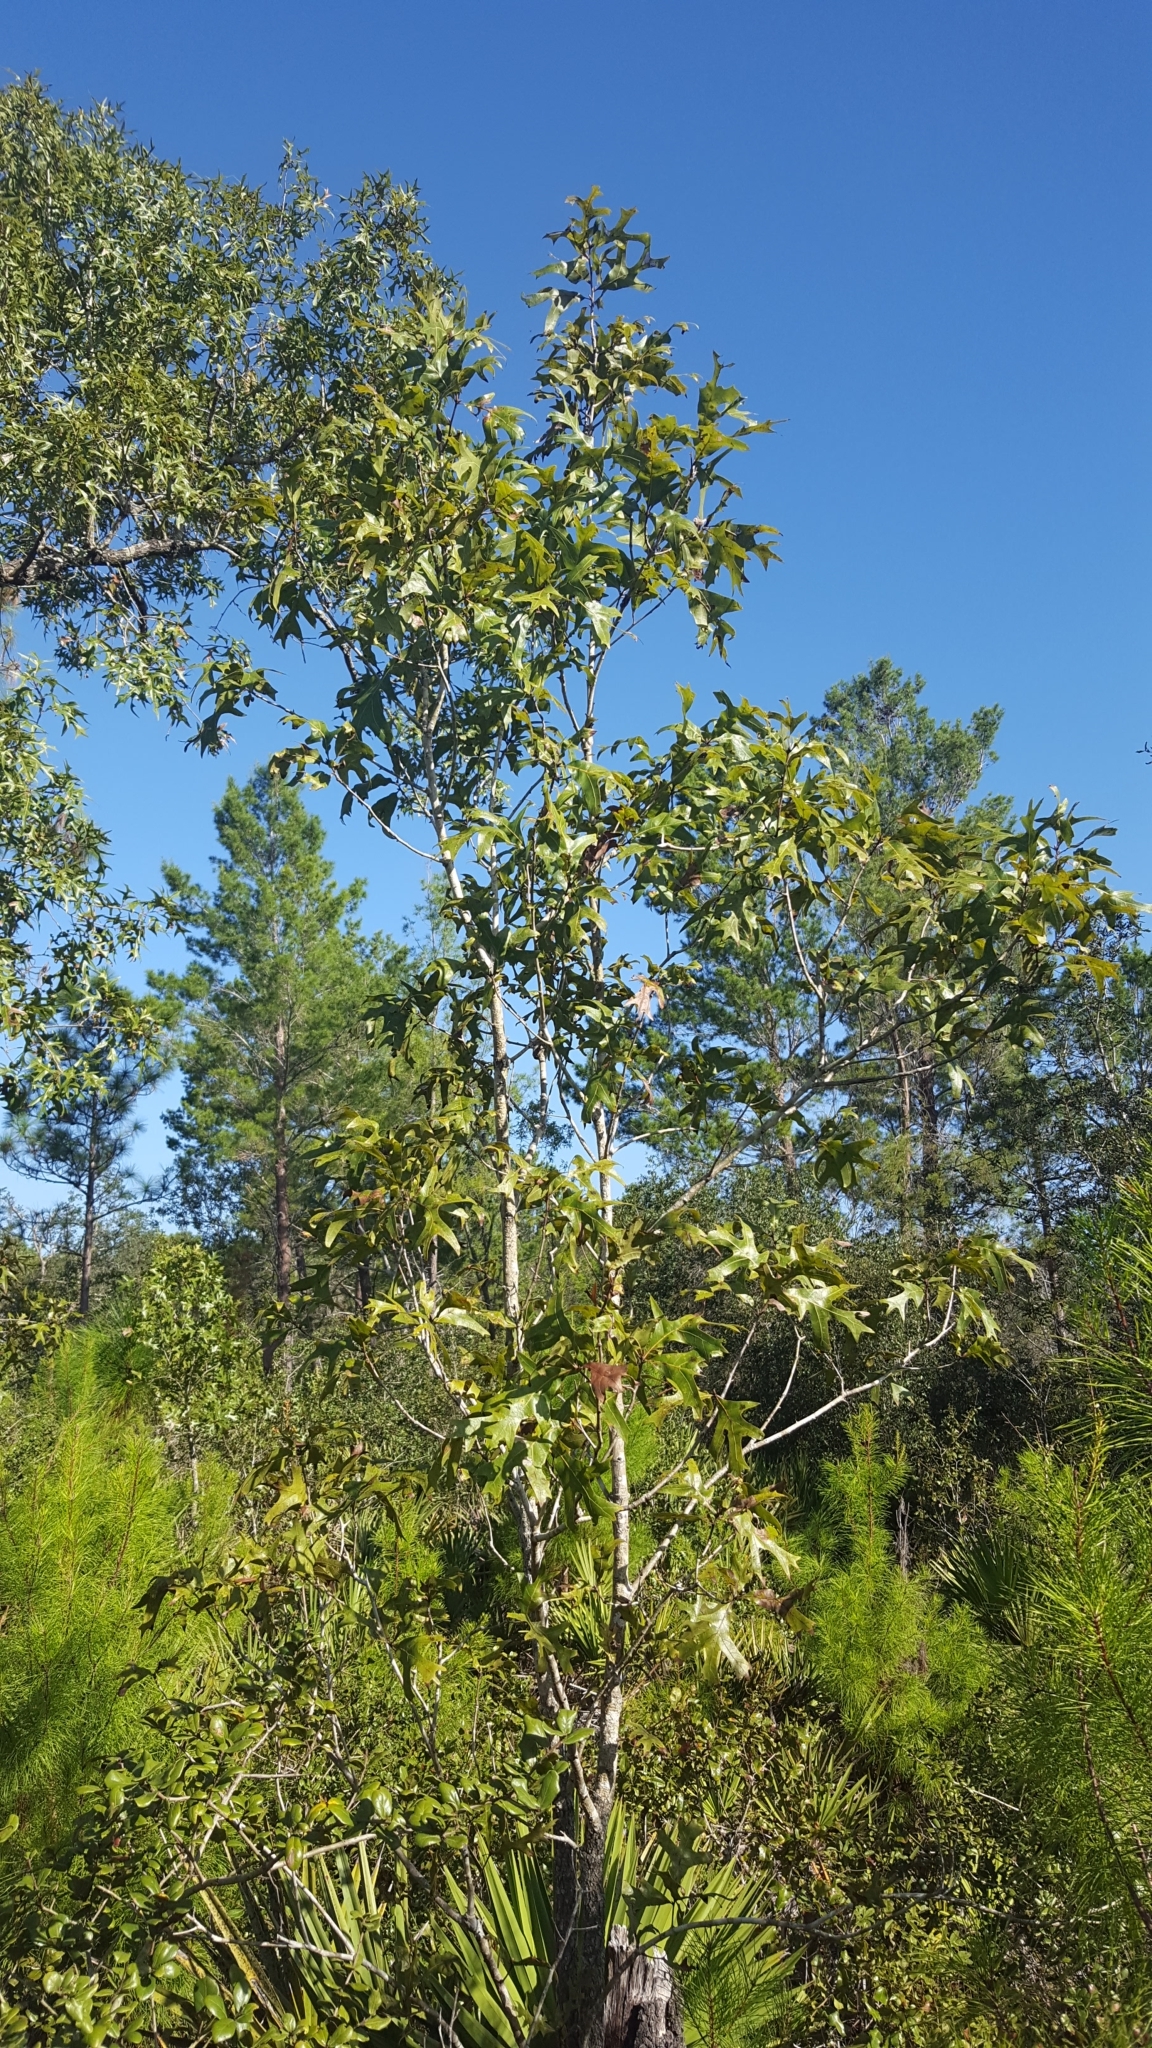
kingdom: Plantae
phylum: Tracheophyta
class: Magnoliopsida
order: Fagales
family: Fagaceae
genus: Quercus
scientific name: Quercus laevis
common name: Turkey oak
